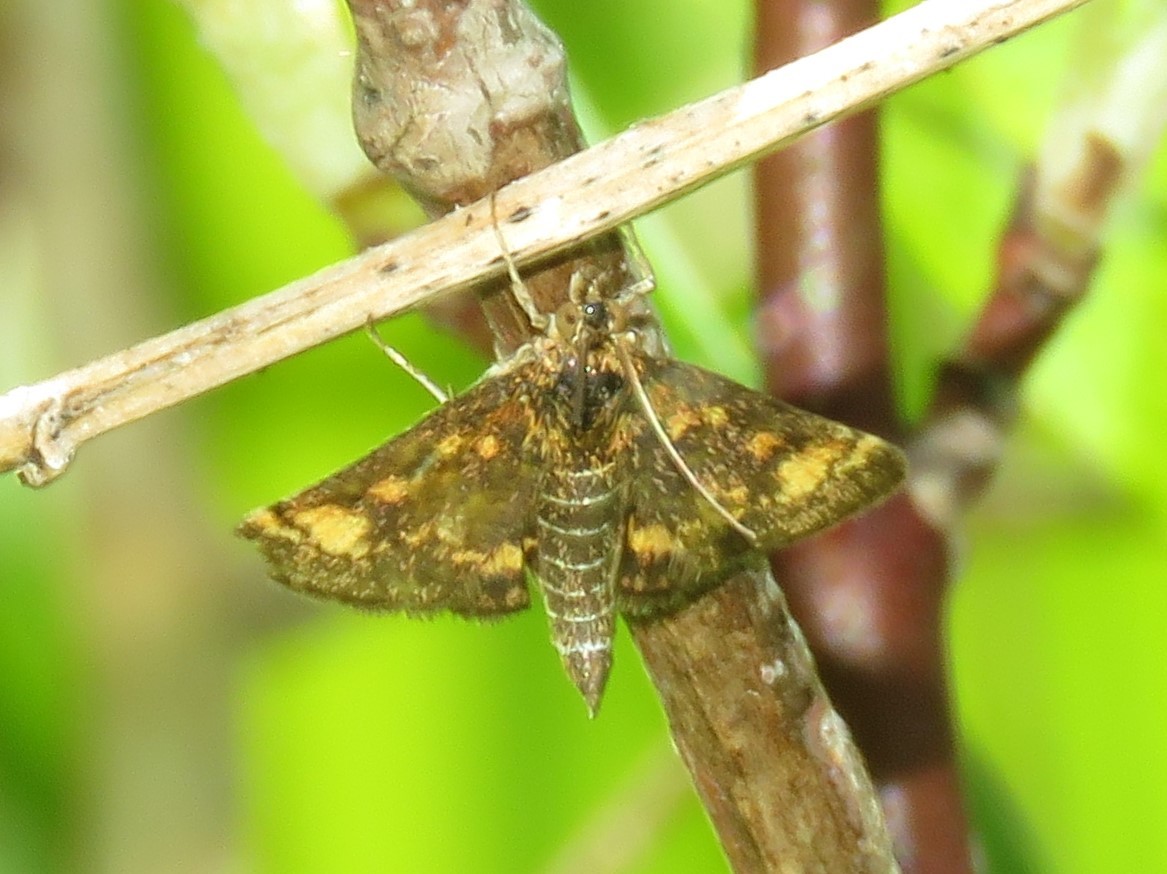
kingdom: Animalia
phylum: Arthropoda
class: Insecta
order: Lepidoptera
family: Crambidae
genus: Pyrausta
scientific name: Pyrausta orphisalis
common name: Orange mint moth
